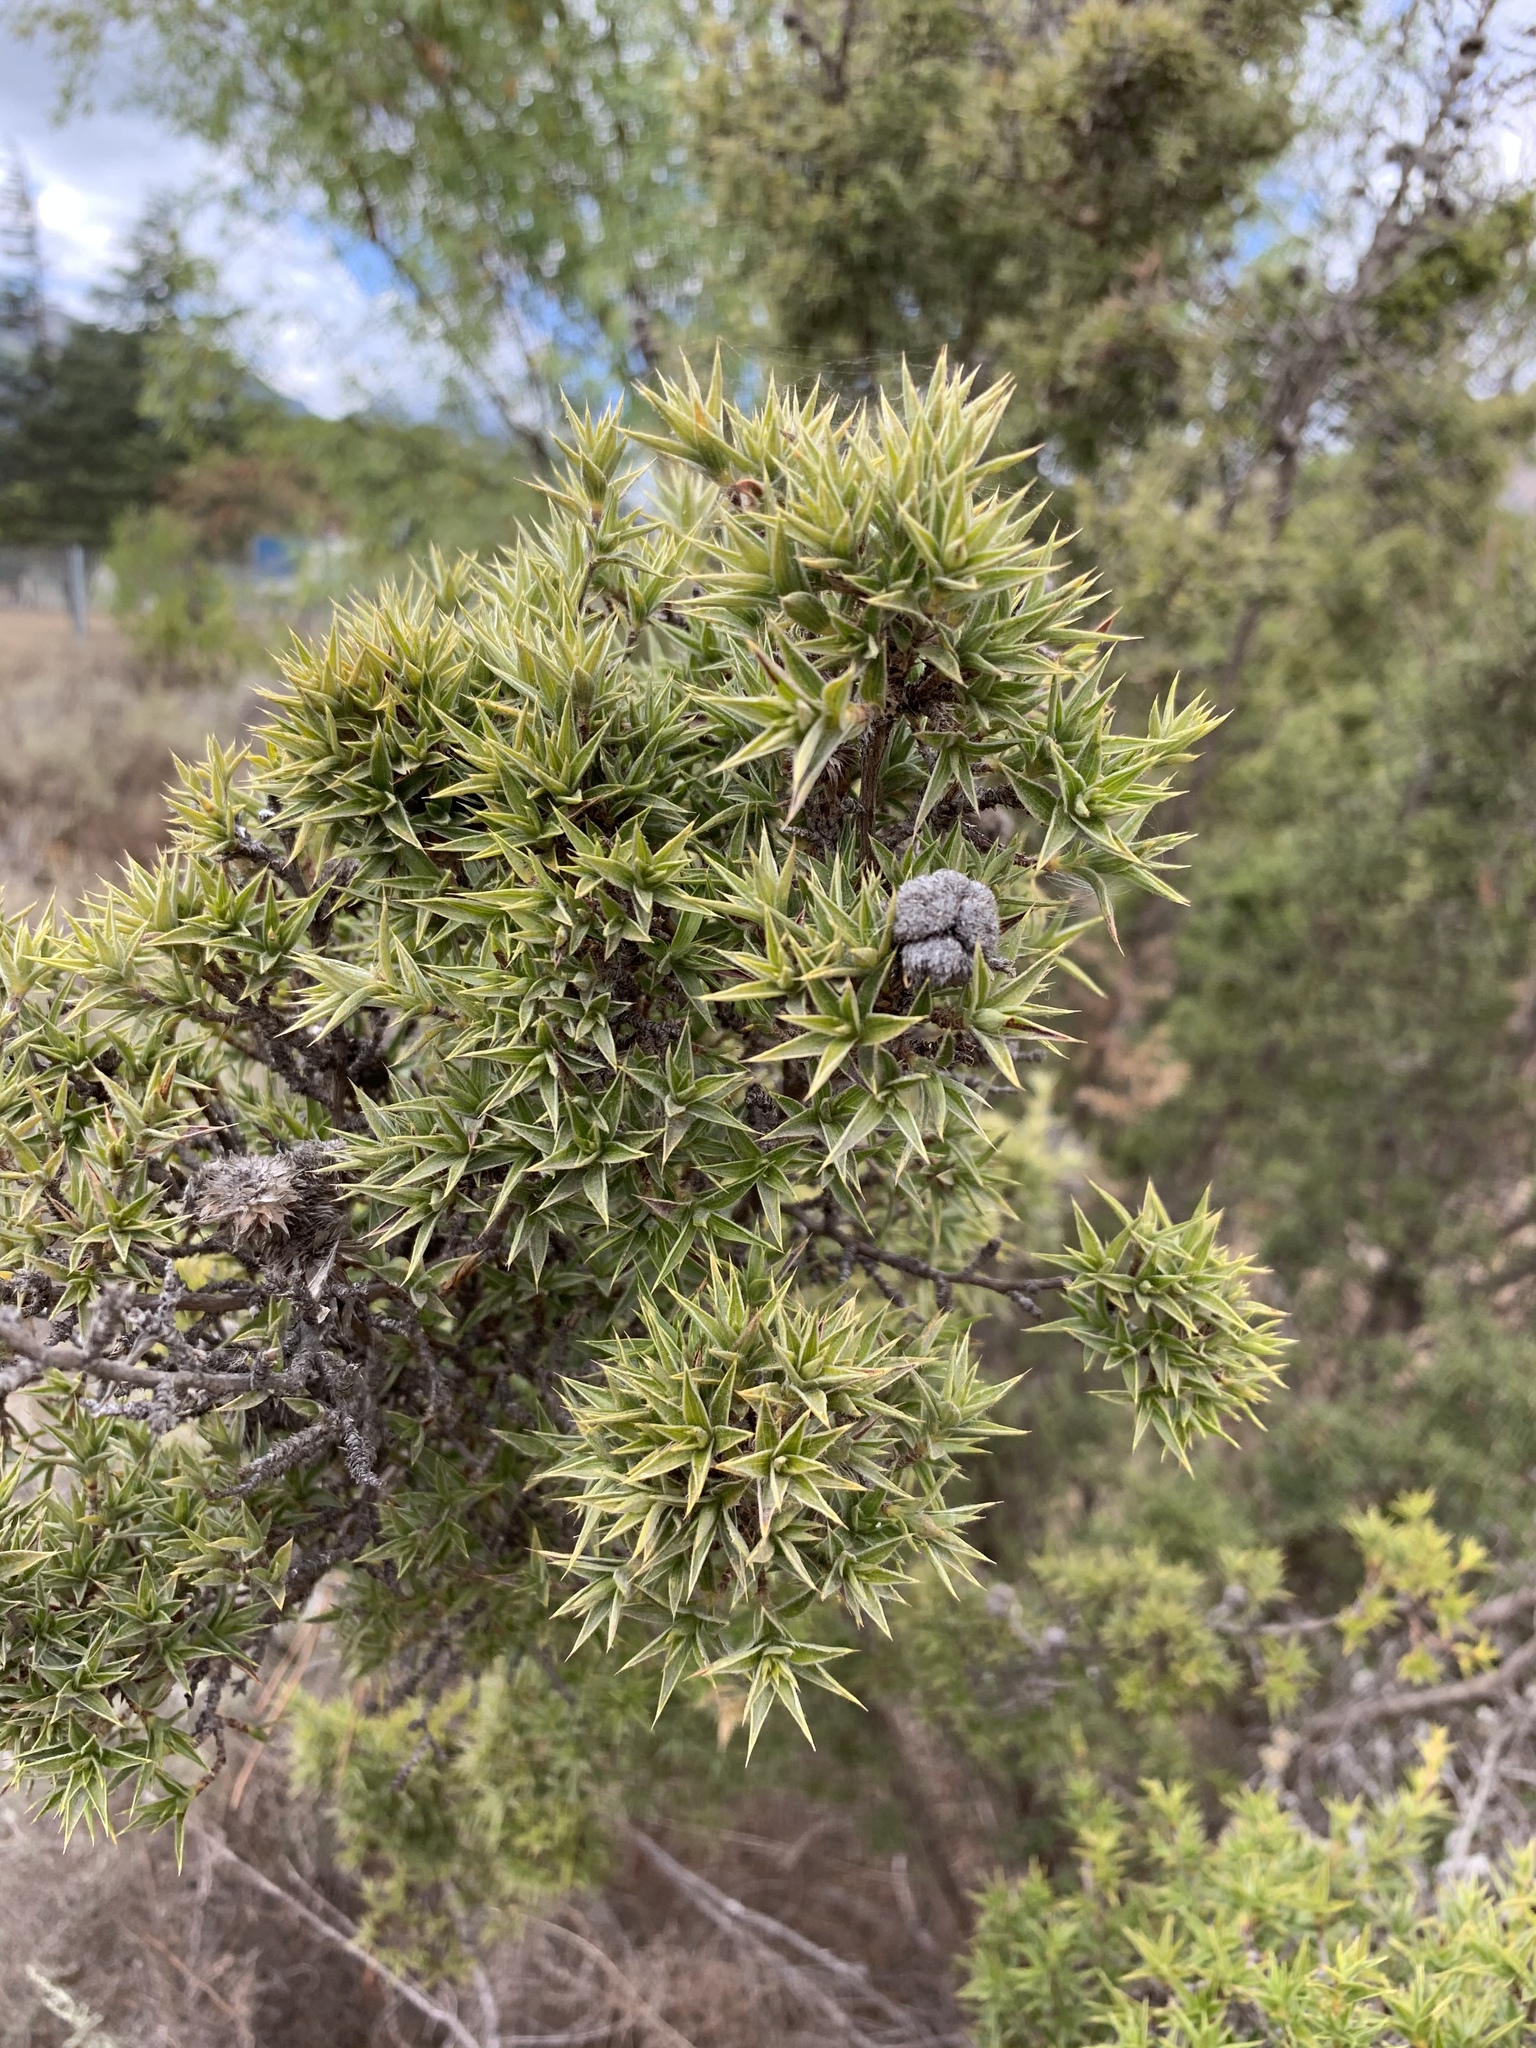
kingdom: Plantae
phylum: Tracheophyta
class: Magnoliopsida
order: Rosales
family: Rosaceae
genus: Cliffortia
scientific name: Cliffortia ruscifolia
